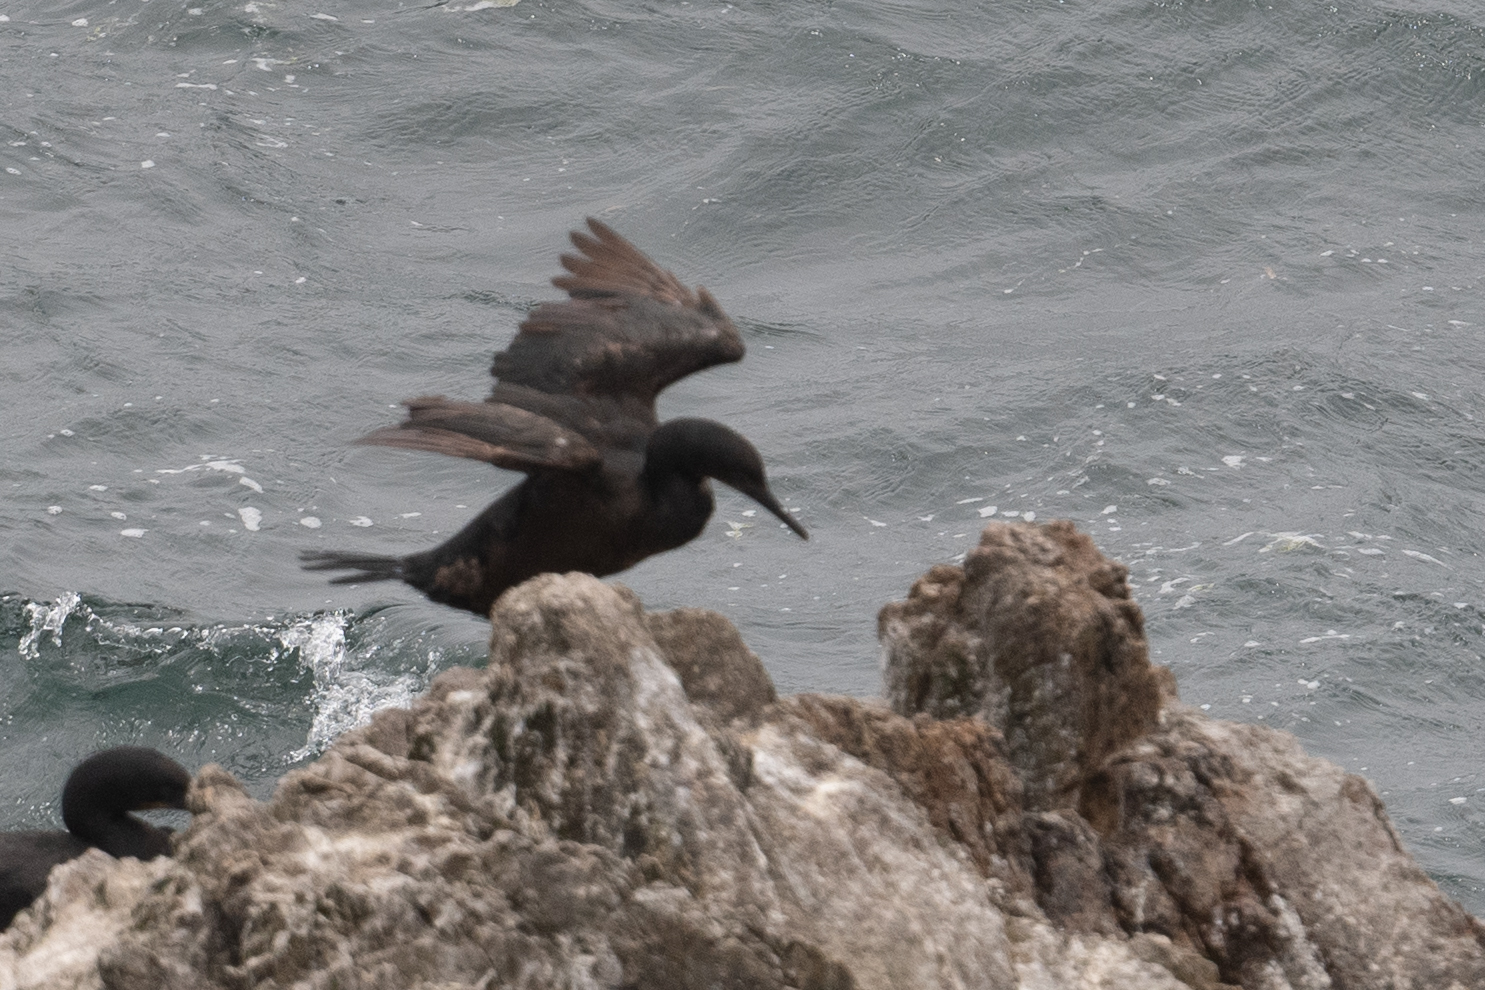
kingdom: Animalia
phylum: Chordata
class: Aves
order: Suliformes
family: Phalacrocoracidae
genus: Urile
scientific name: Urile penicillatus
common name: Brandt's cormorant
